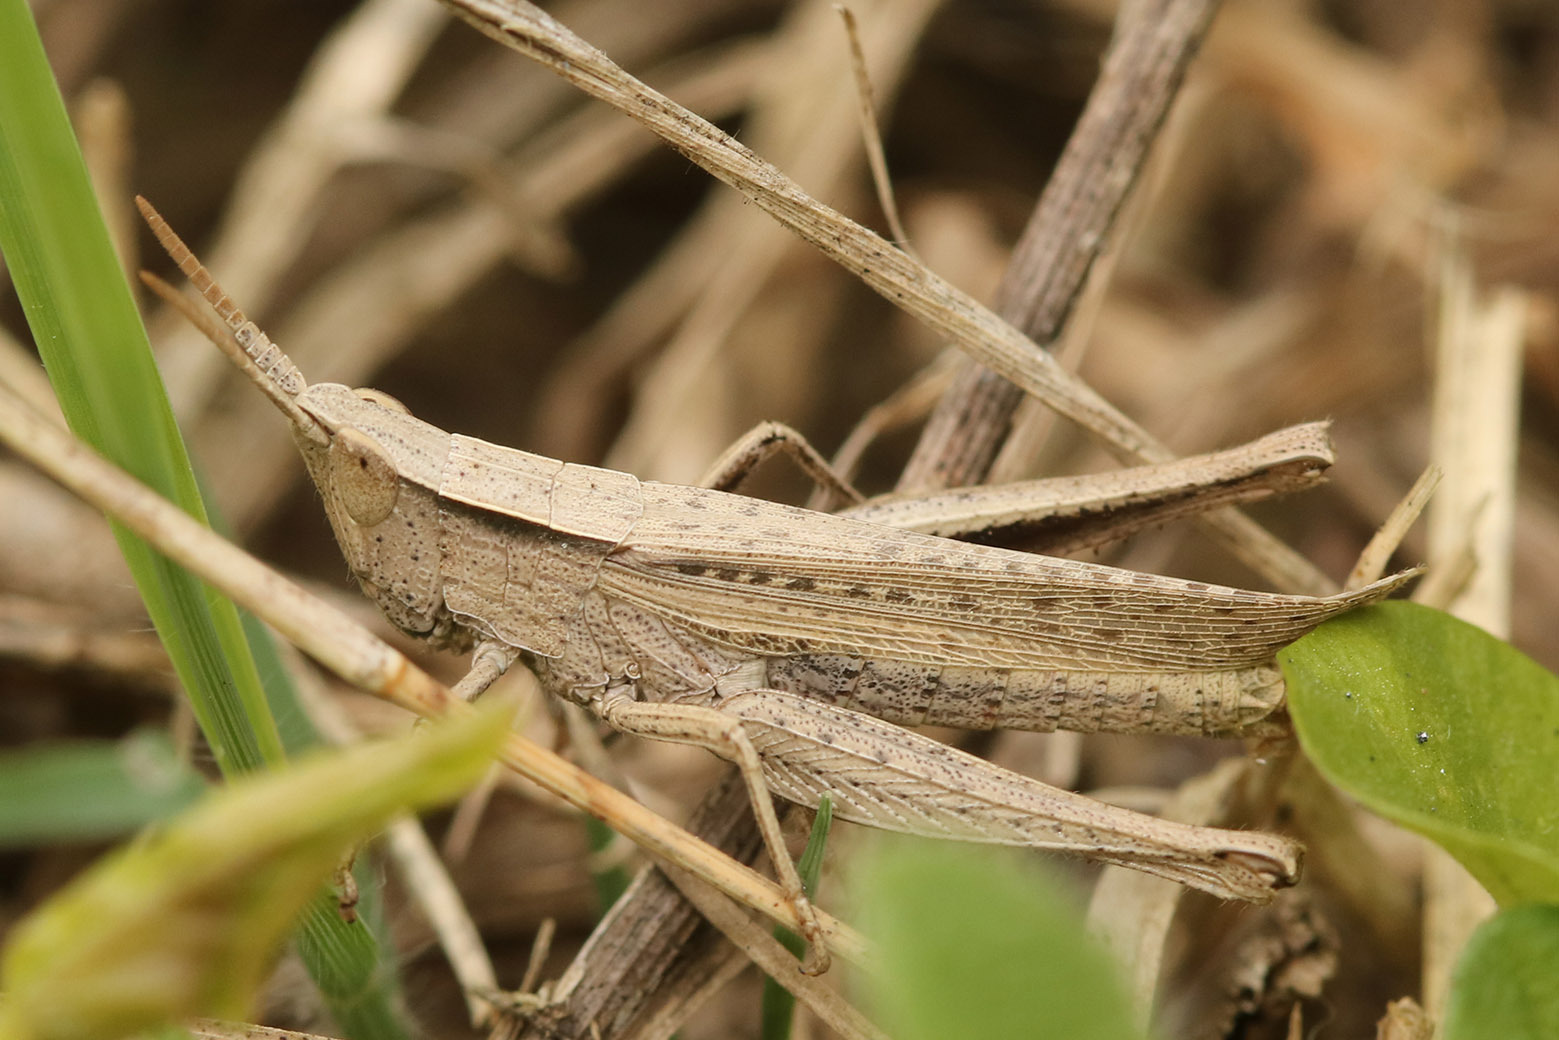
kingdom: Animalia
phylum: Arthropoda
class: Insecta
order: Orthoptera
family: Acrididae
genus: Laplatacris
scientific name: Laplatacris dispar
